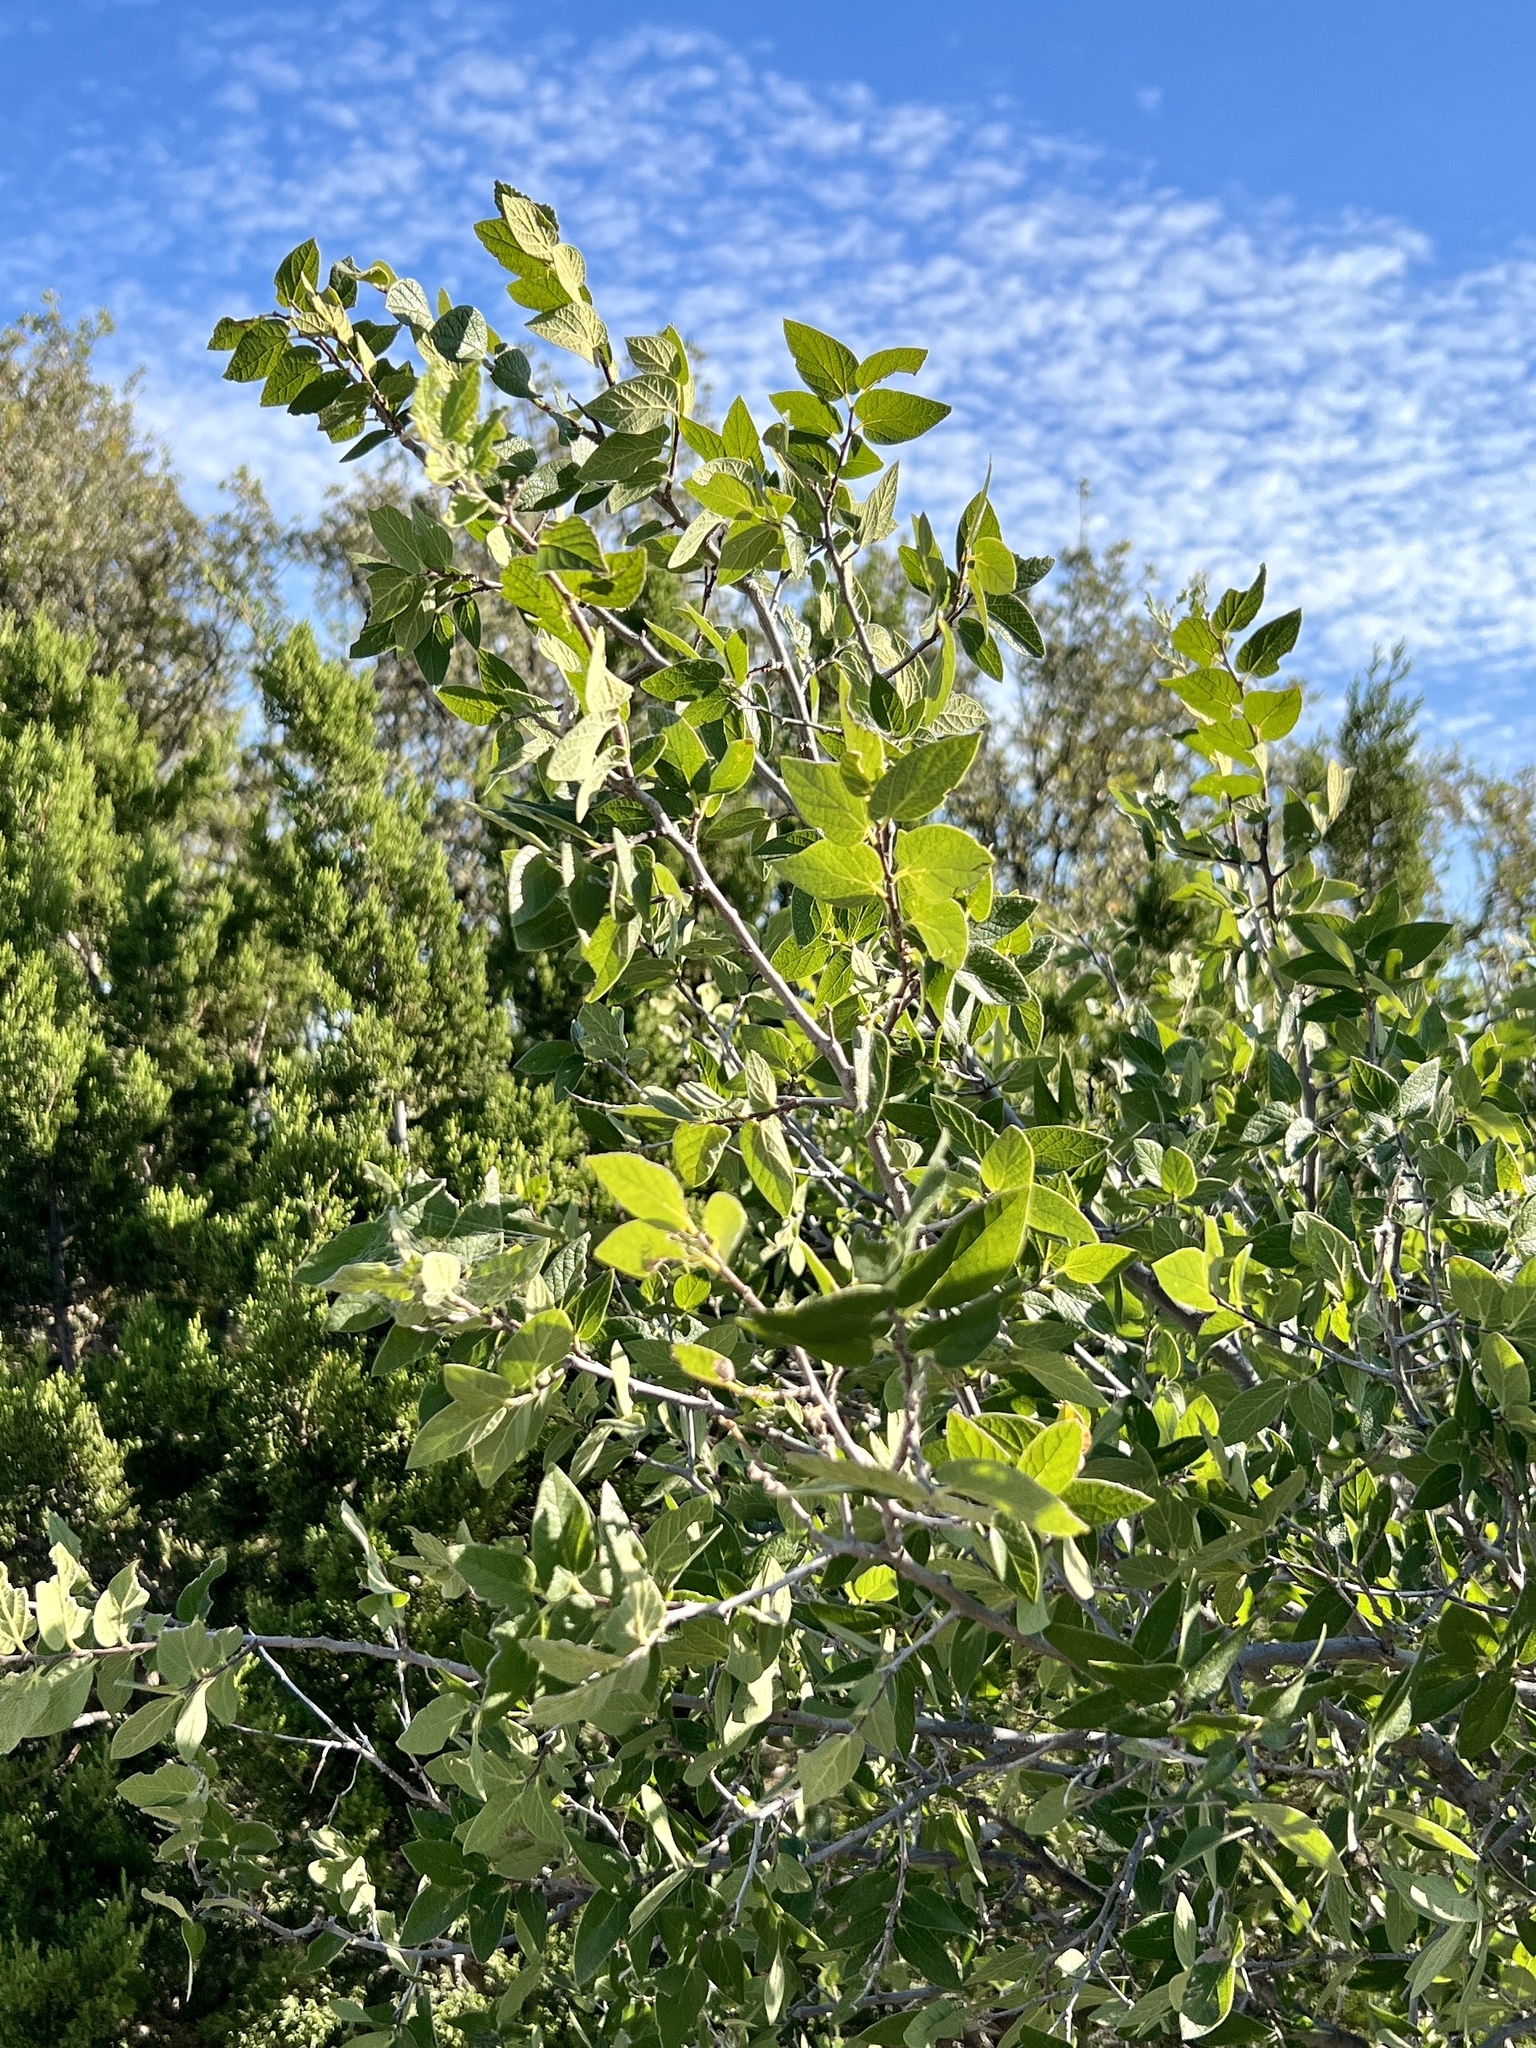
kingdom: Plantae
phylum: Tracheophyta
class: Magnoliopsida
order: Rosales
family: Cannabaceae
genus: Celtis
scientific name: Celtis reticulata
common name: Netleaf hackberry
